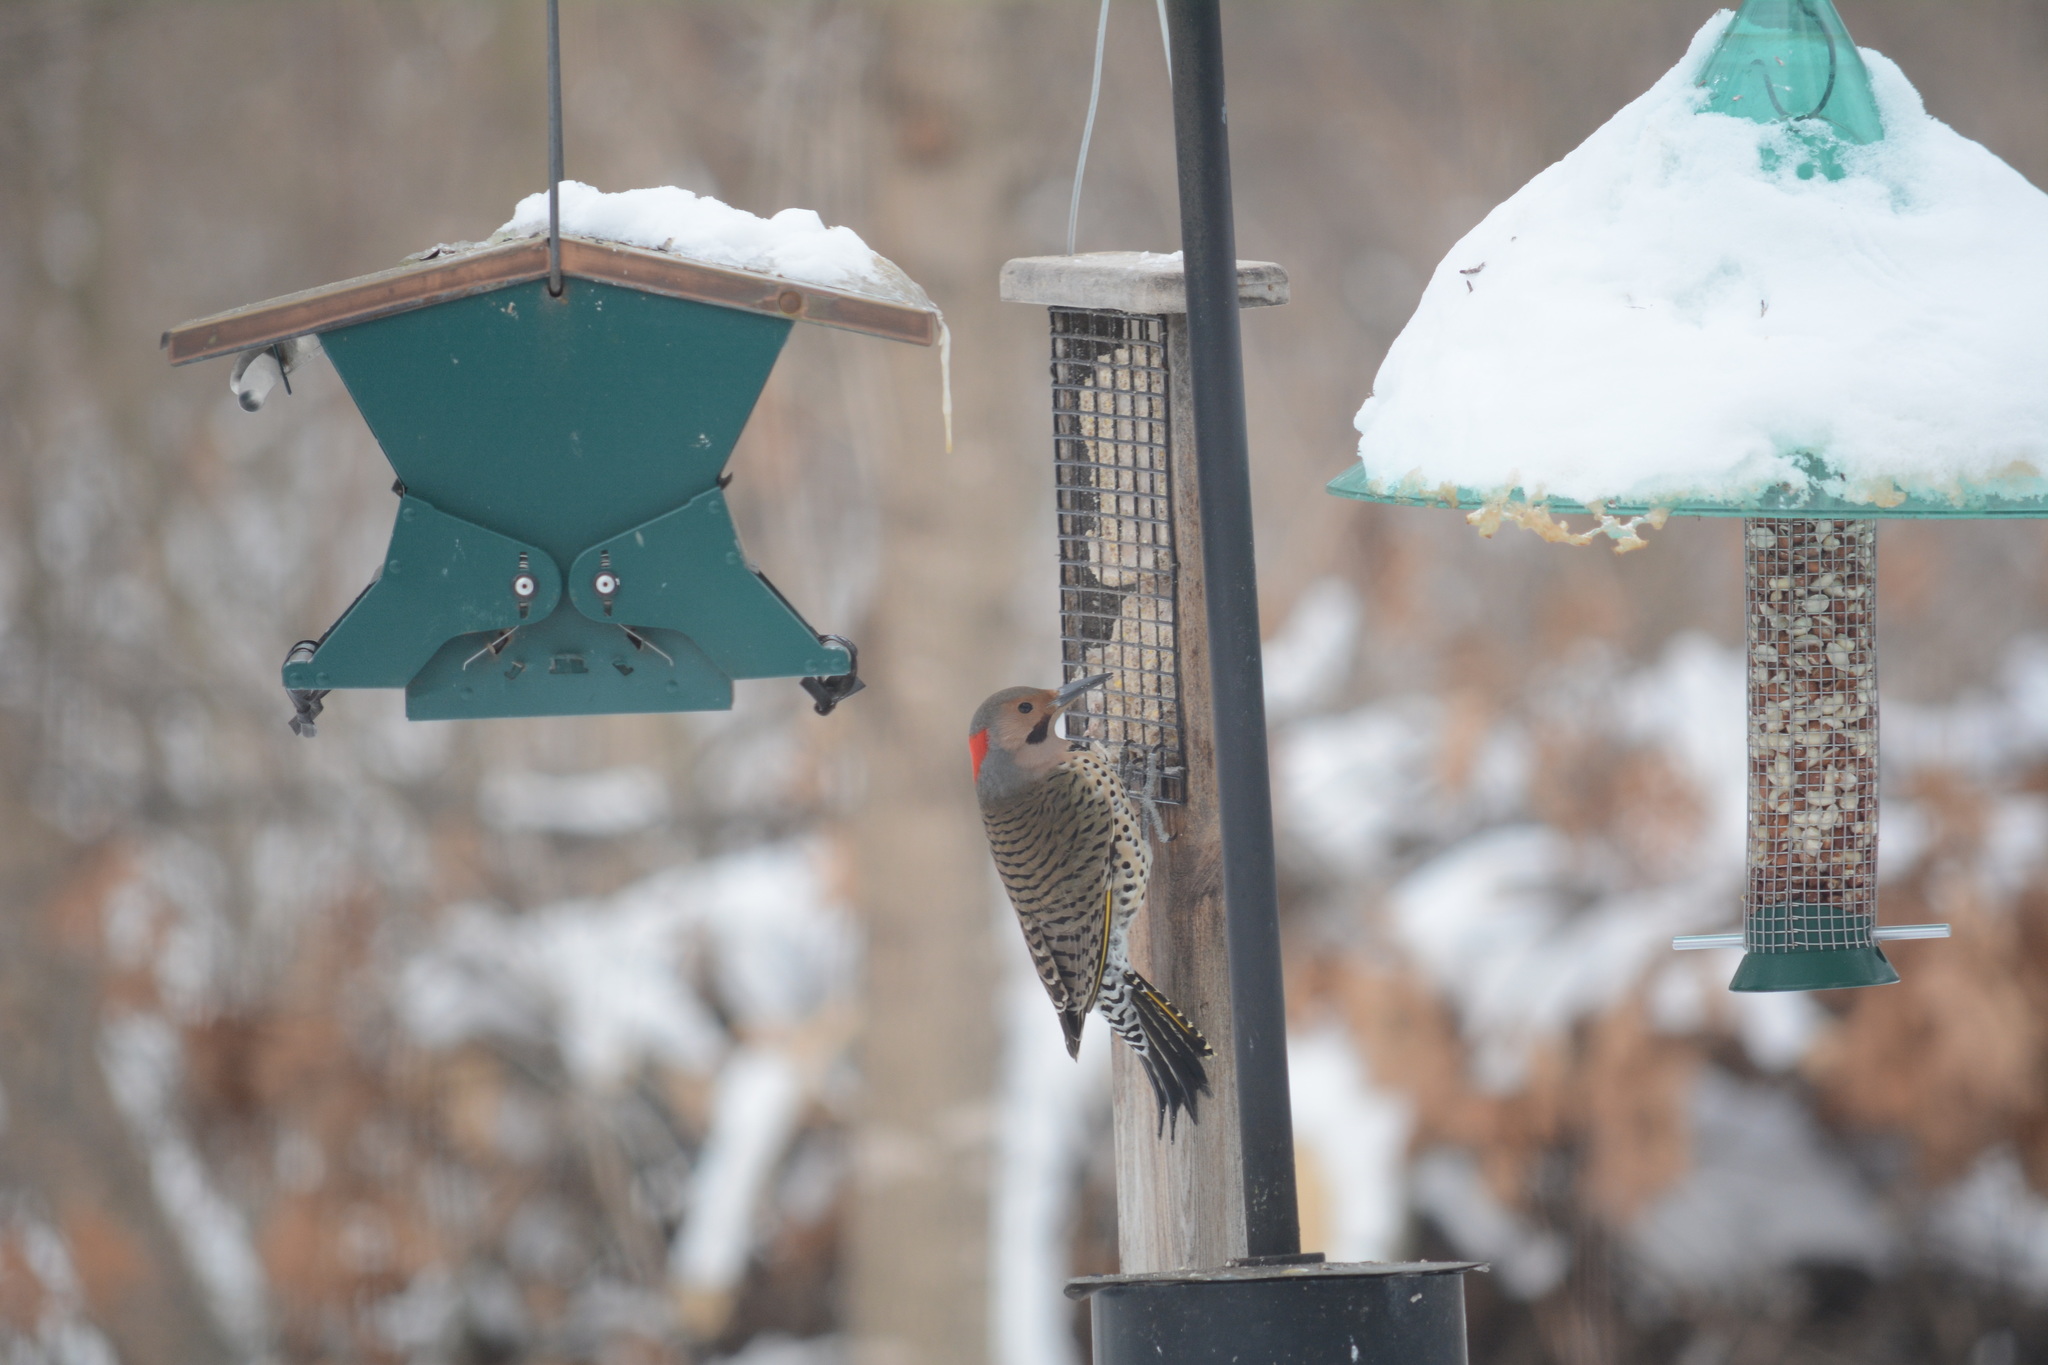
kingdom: Animalia
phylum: Chordata
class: Aves
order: Piciformes
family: Picidae
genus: Colaptes
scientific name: Colaptes auratus
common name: Northern flicker
